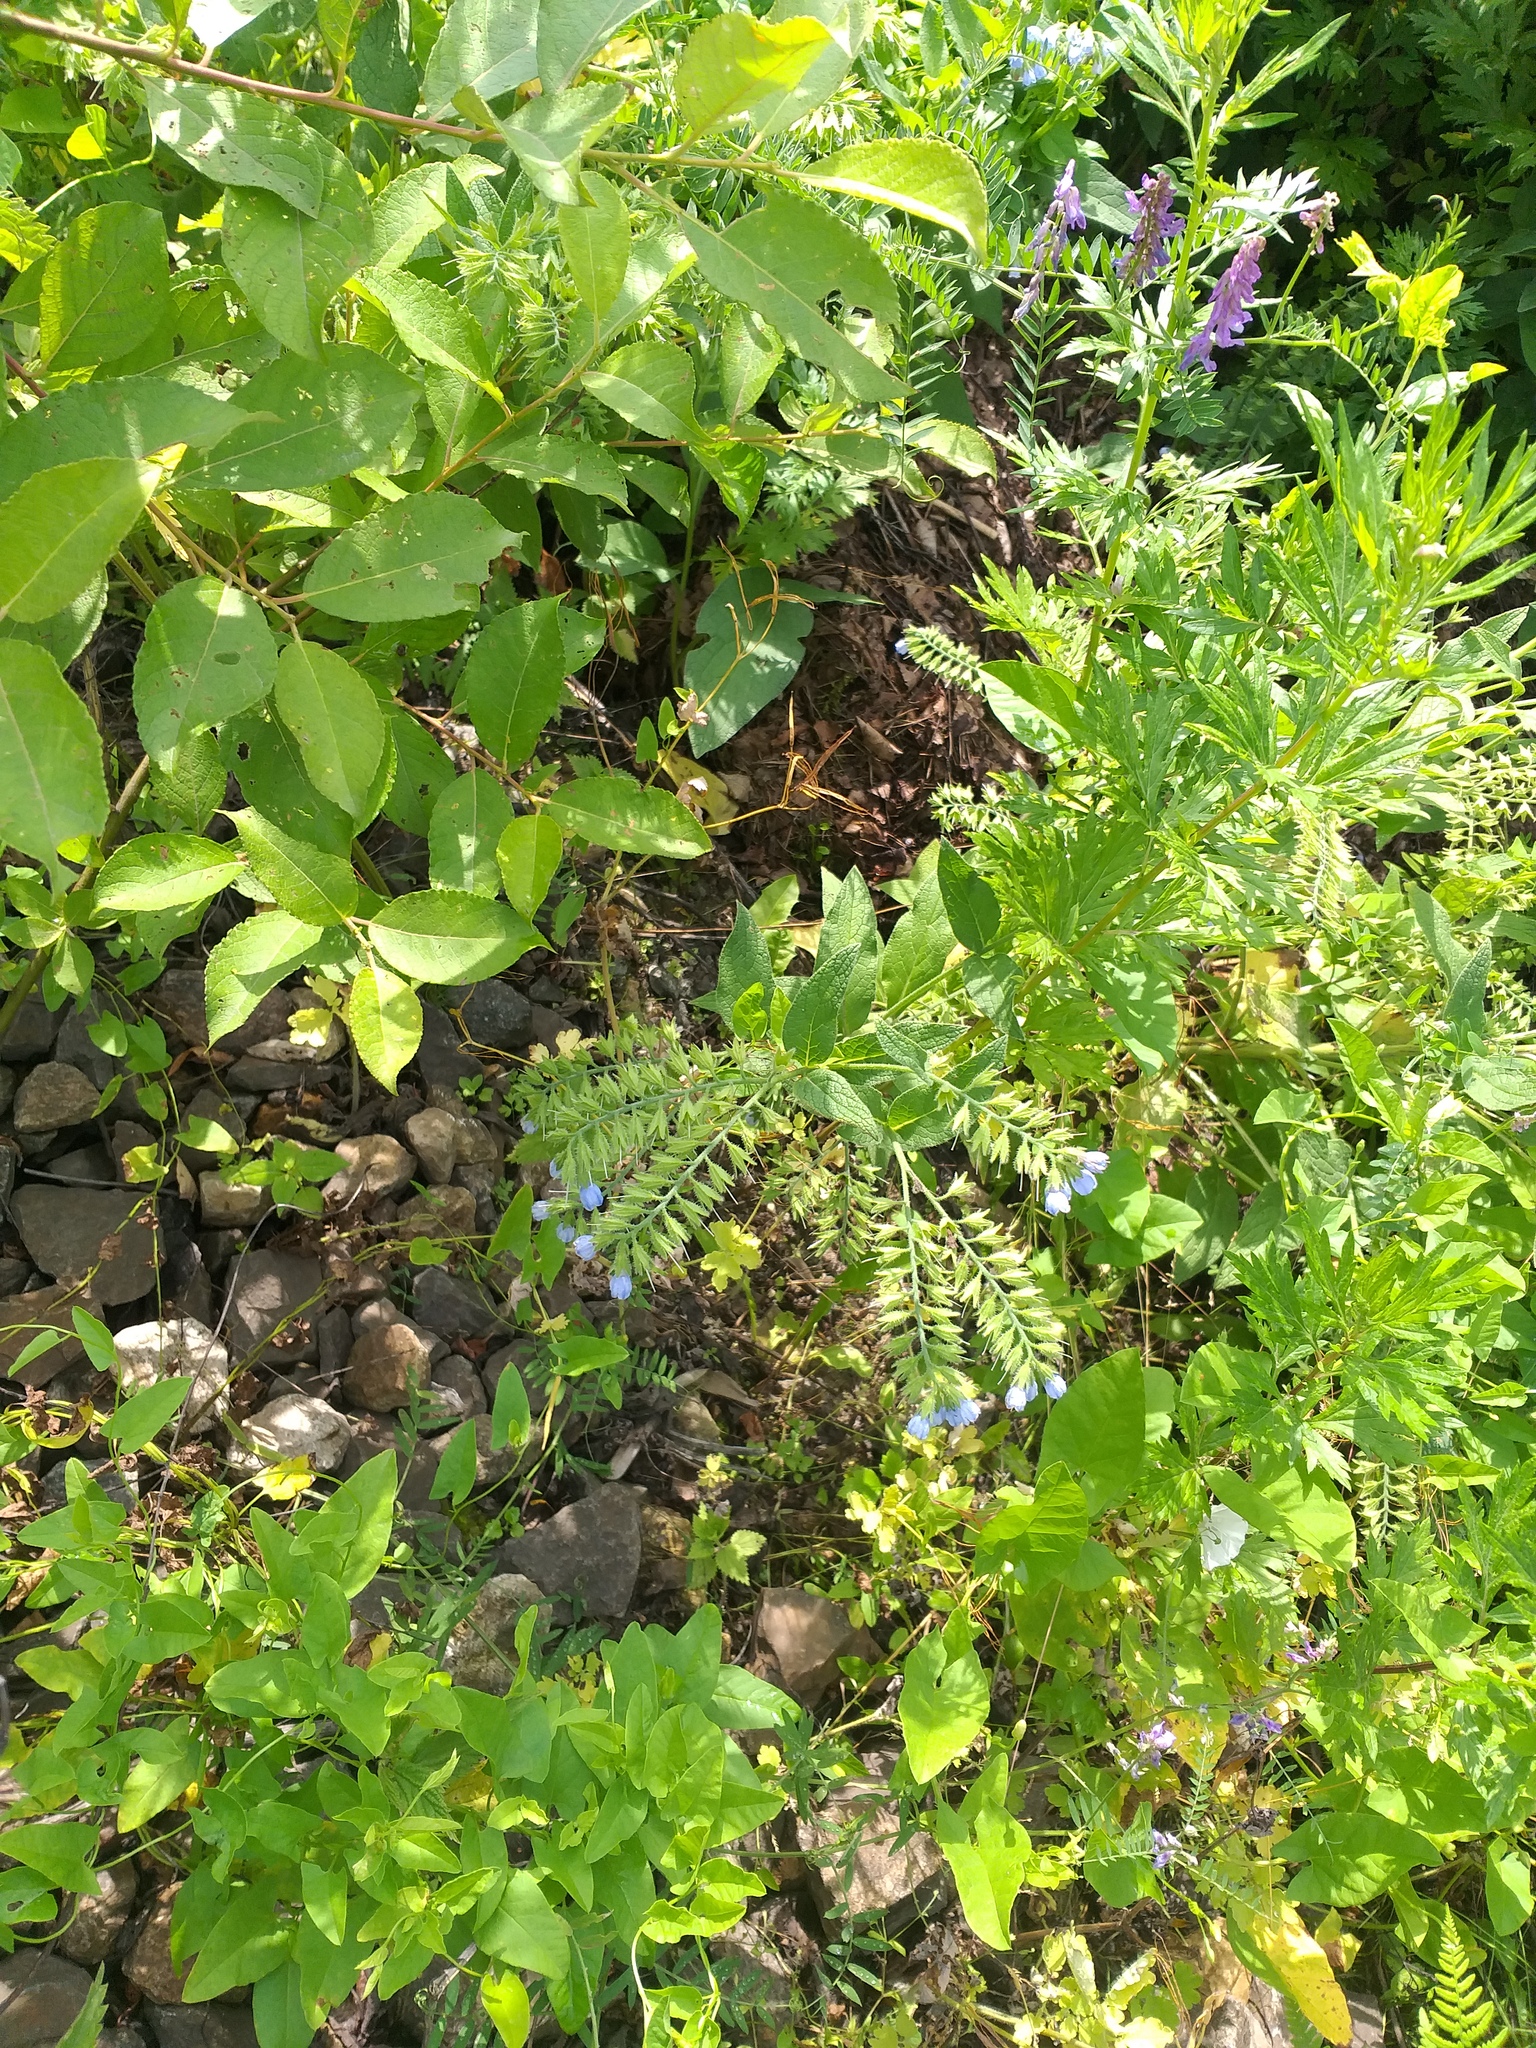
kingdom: Plantae
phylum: Tracheophyta
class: Magnoliopsida
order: Boraginales
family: Boraginaceae
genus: Symphytum
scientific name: Symphytum caucasicum
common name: Caucasian comfrey
